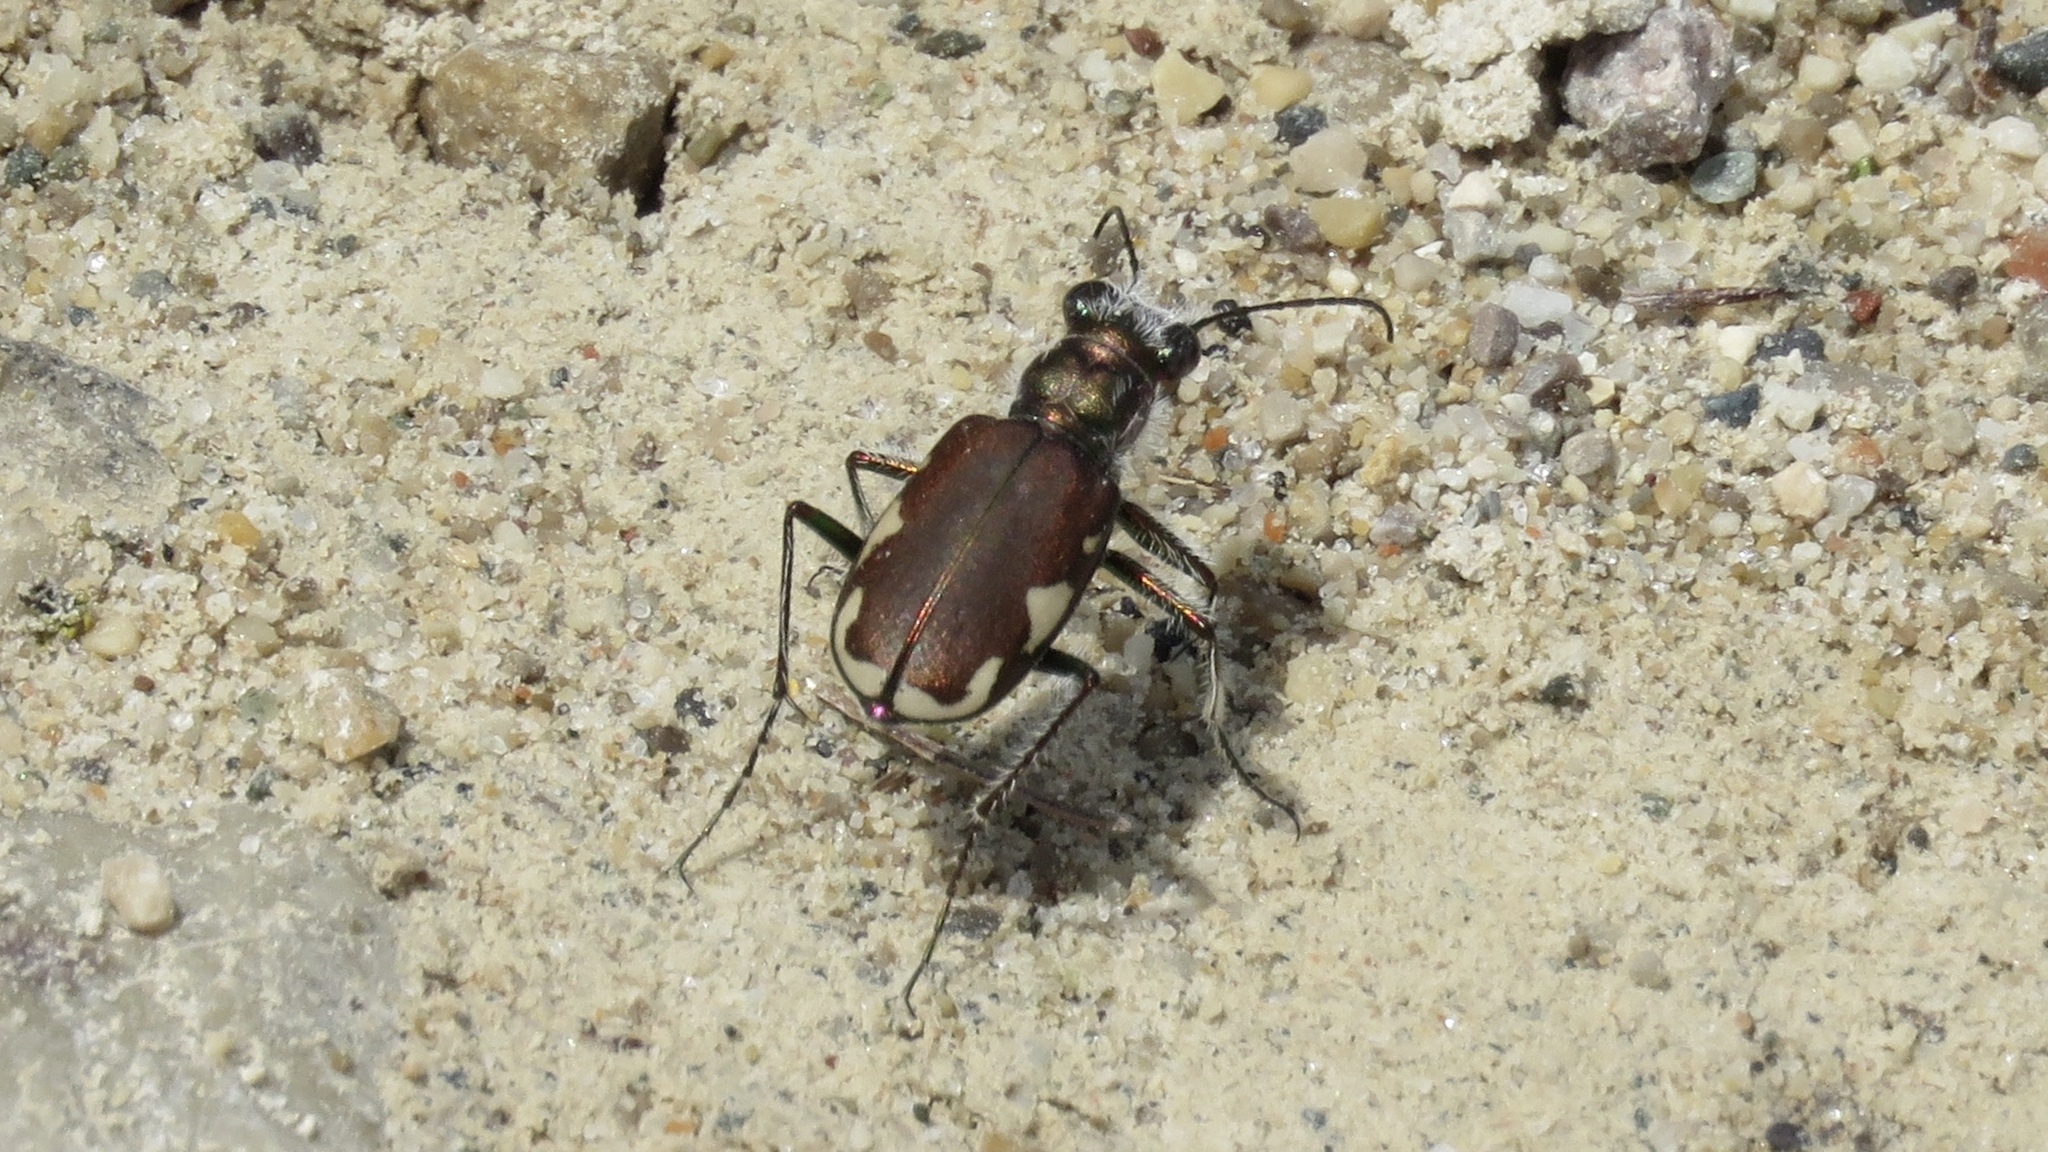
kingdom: Animalia
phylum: Arthropoda
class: Insecta
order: Coleoptera
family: Carabidae
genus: Cicindela
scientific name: Cicindela scutellaris
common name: Festive tiger beetle
